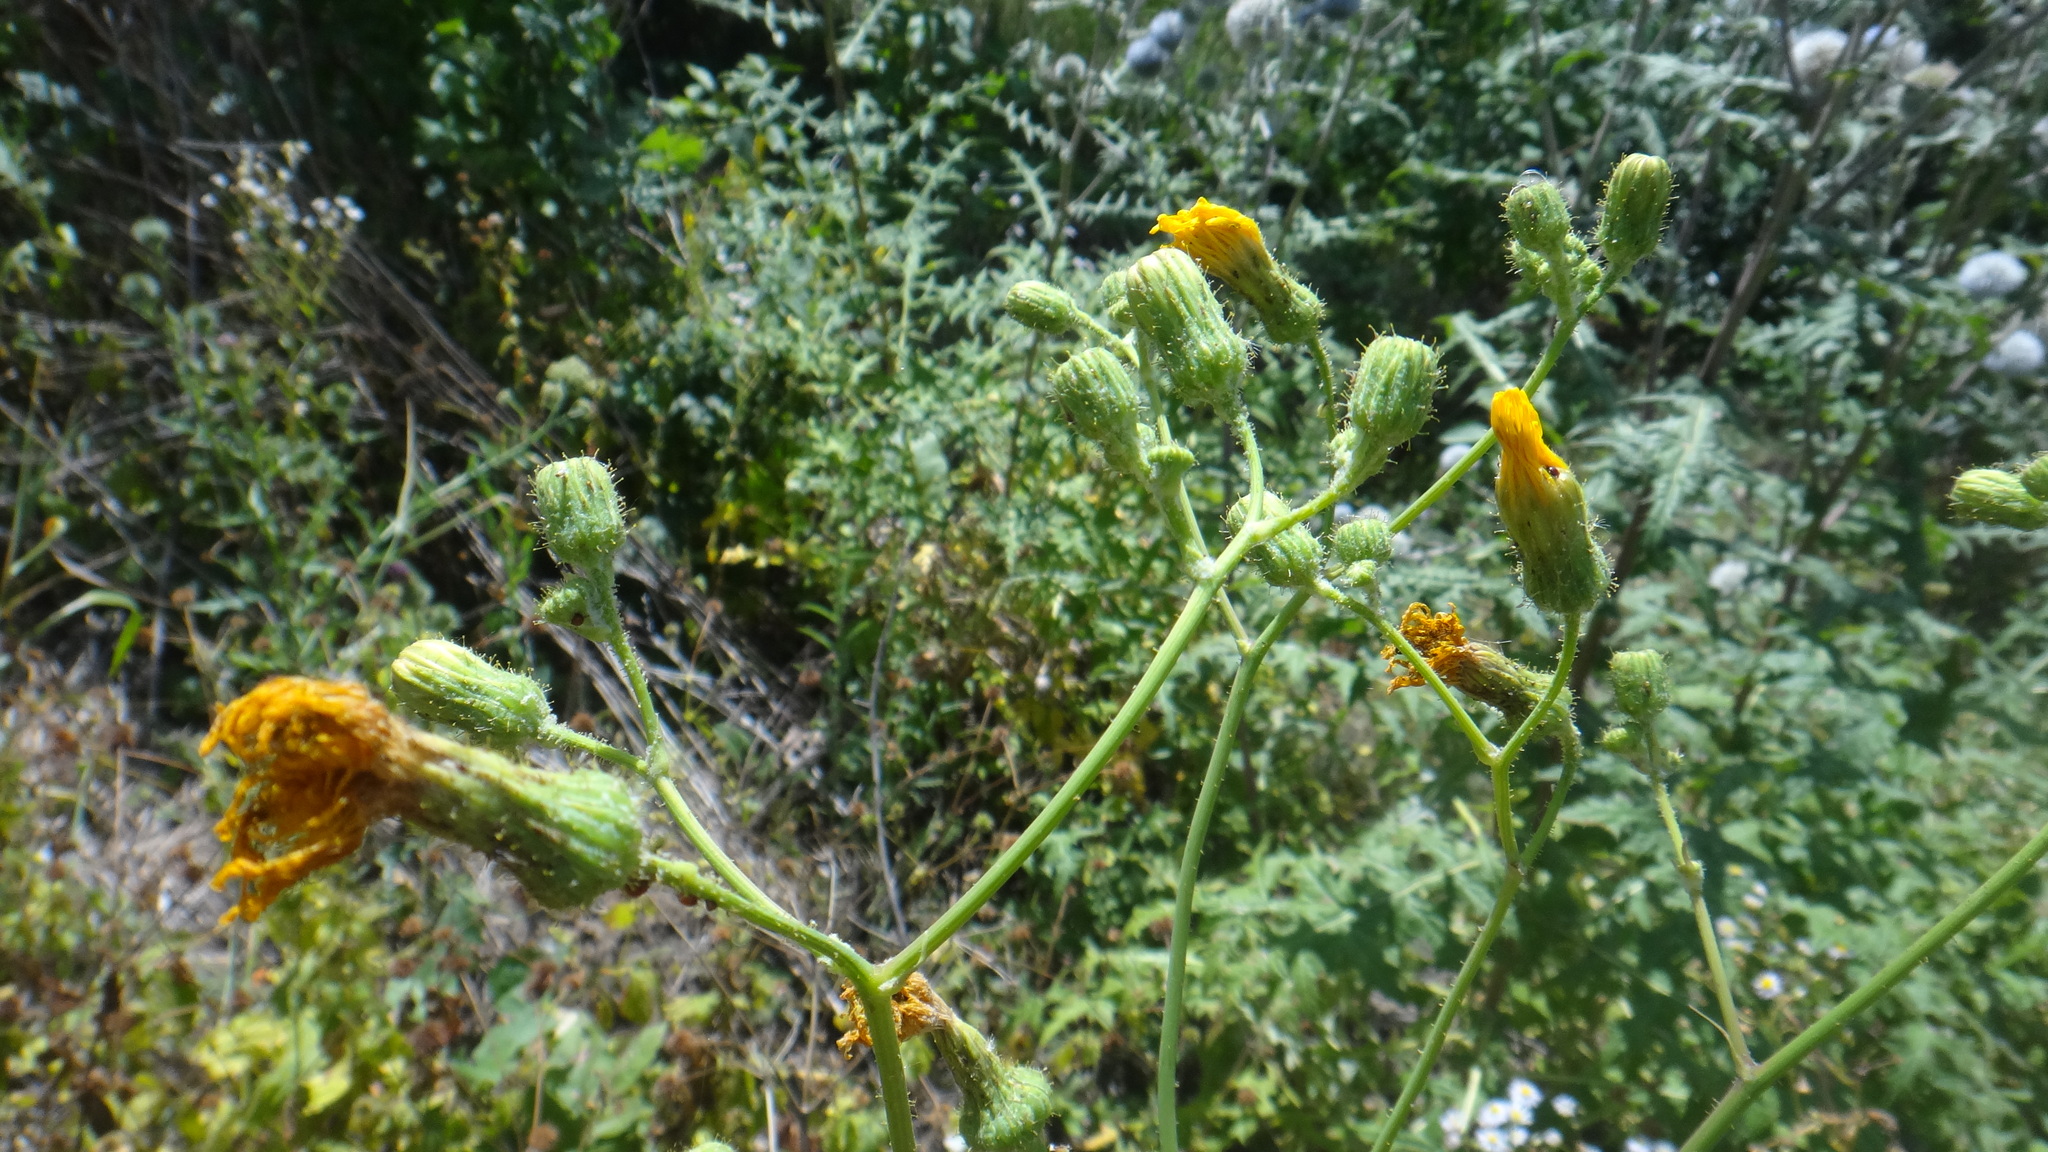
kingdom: Plantae
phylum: Tracheophyta
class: Magnoliopsida
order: Asterales
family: Asteraceae
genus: Sonchus
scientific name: Sonchus arvensis
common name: Perennial sow-thistle
